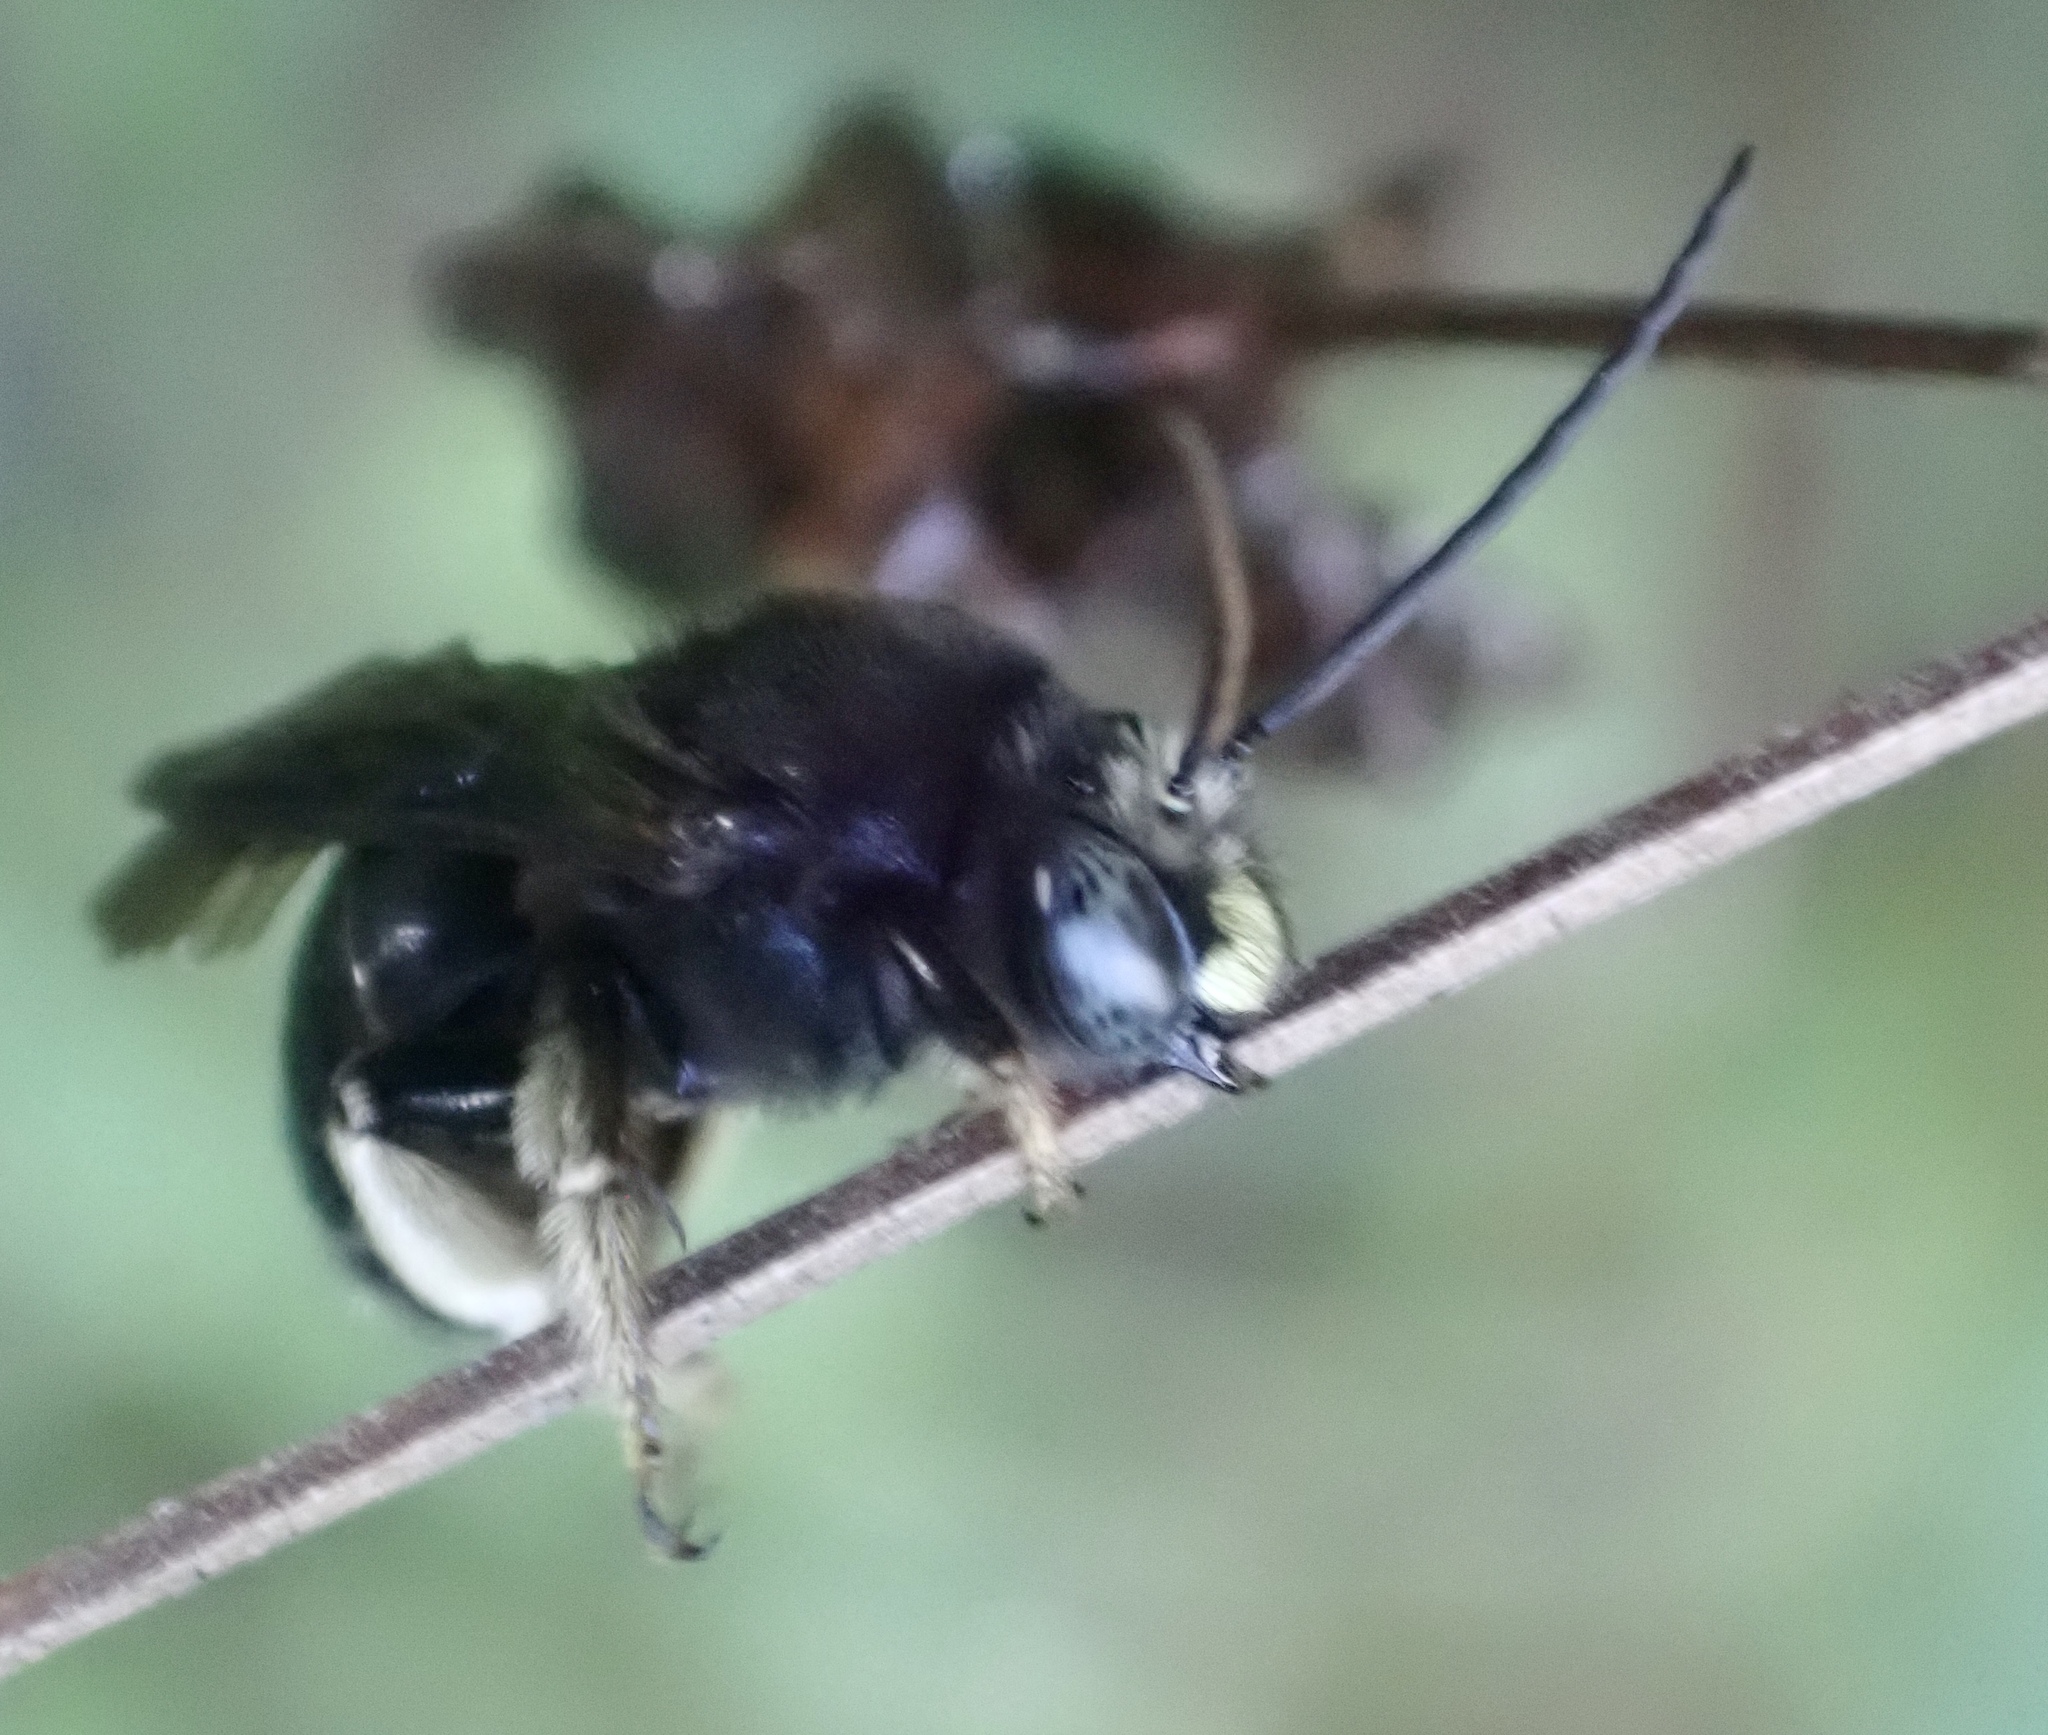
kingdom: Animalia
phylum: Arthropoda
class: Insecta
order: Hymenoptera
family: Apidae
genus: Melissodes
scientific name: Melissodes bimaculatus
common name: Two-spotted long-horned bee
